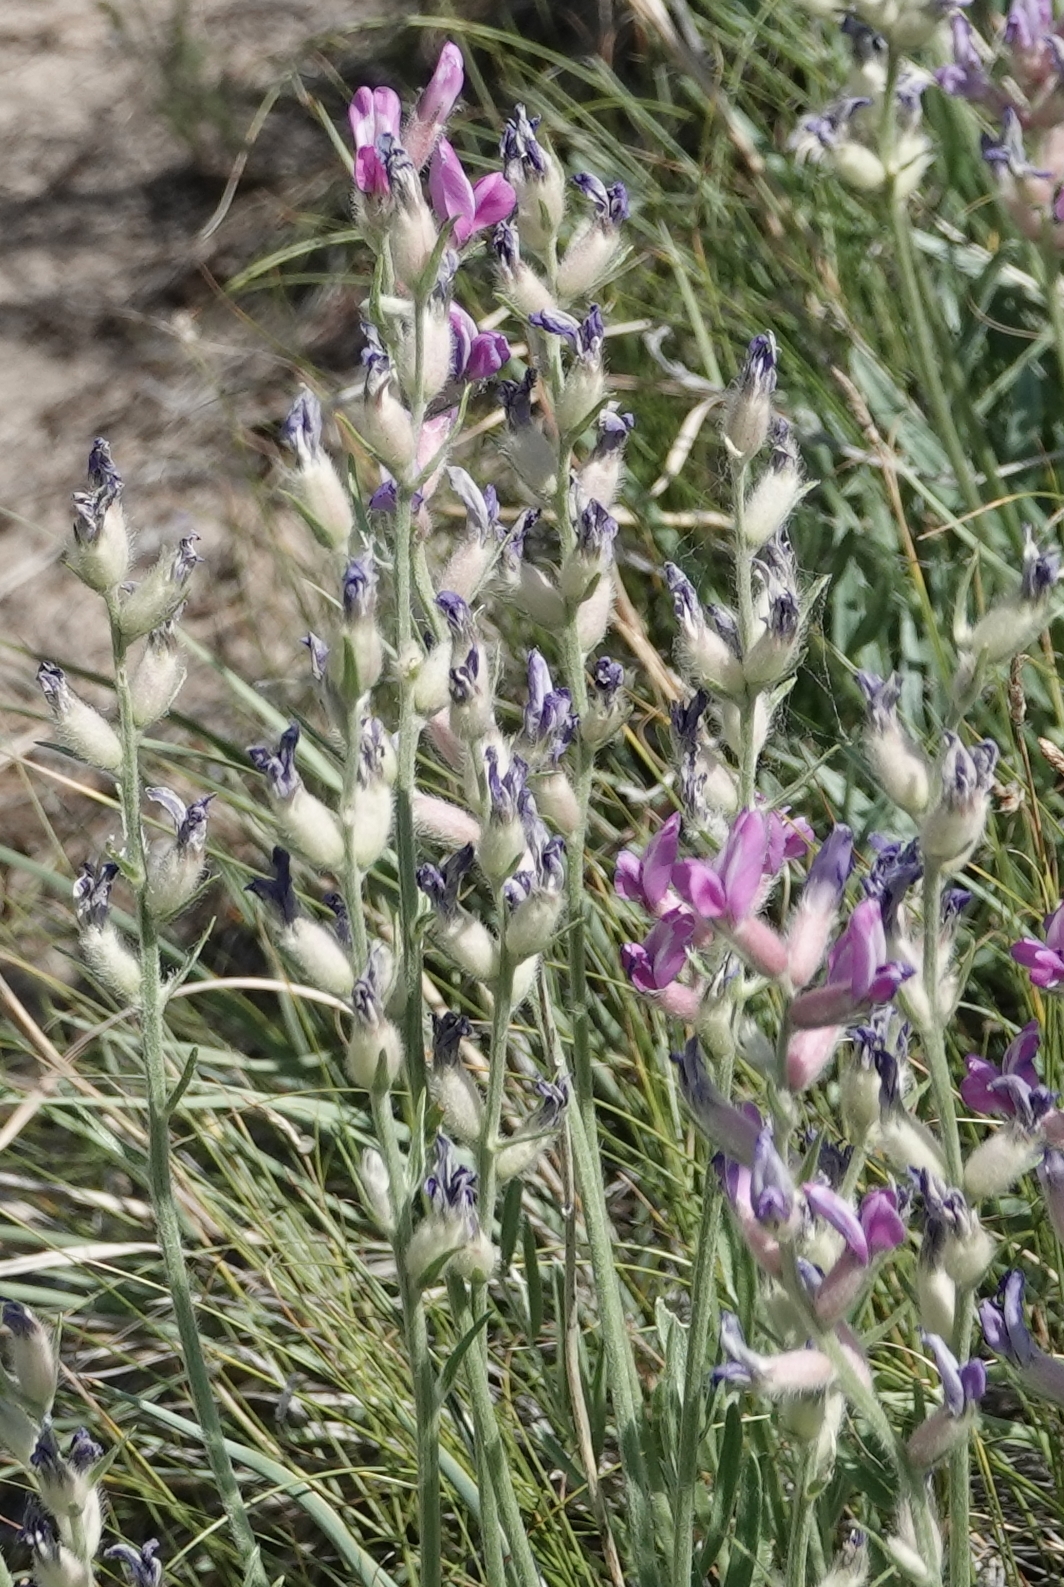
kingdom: Plantae
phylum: Tracheophyta
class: Magnoliopsida
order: Fabales
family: Fabaceae
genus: Oxytropis
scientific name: Oxytropis lambertii
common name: Purple locoweed
